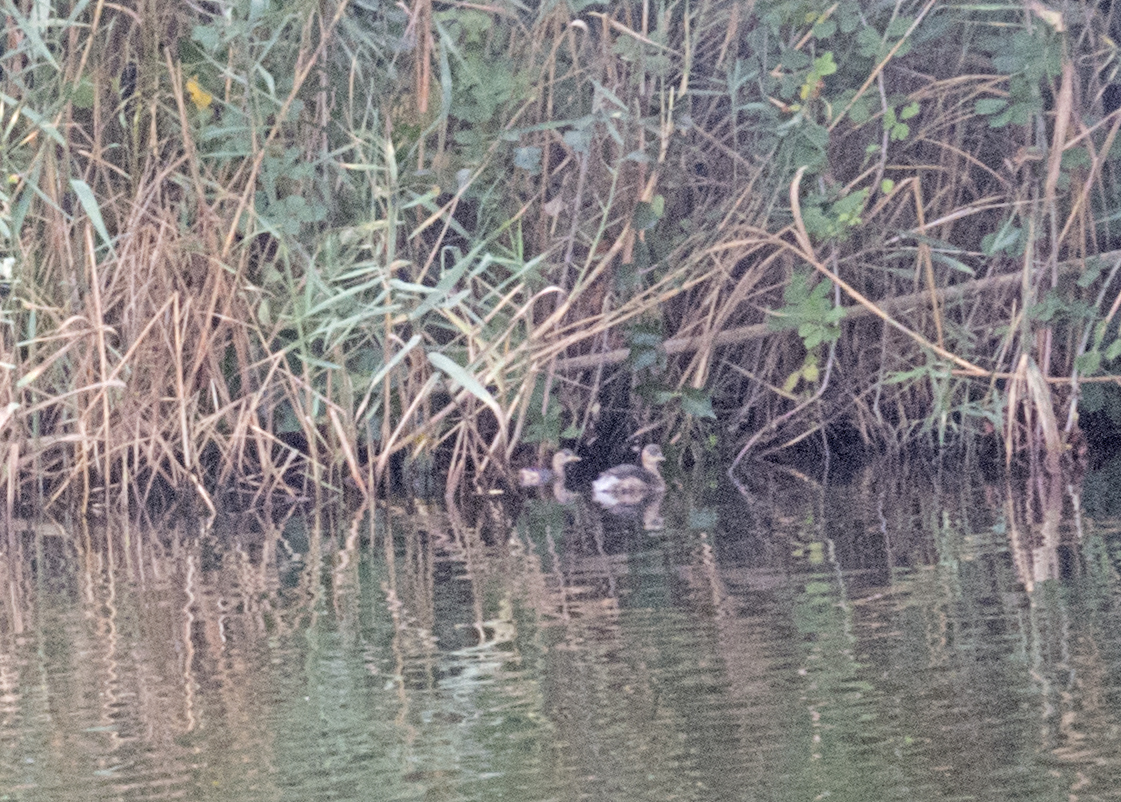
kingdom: Animalia
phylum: Chordata
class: Aves
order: Podicipediformes
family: Podicipedidae
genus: Tachybaptus
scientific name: Tachybaptus ruficollis
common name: Little grebe
